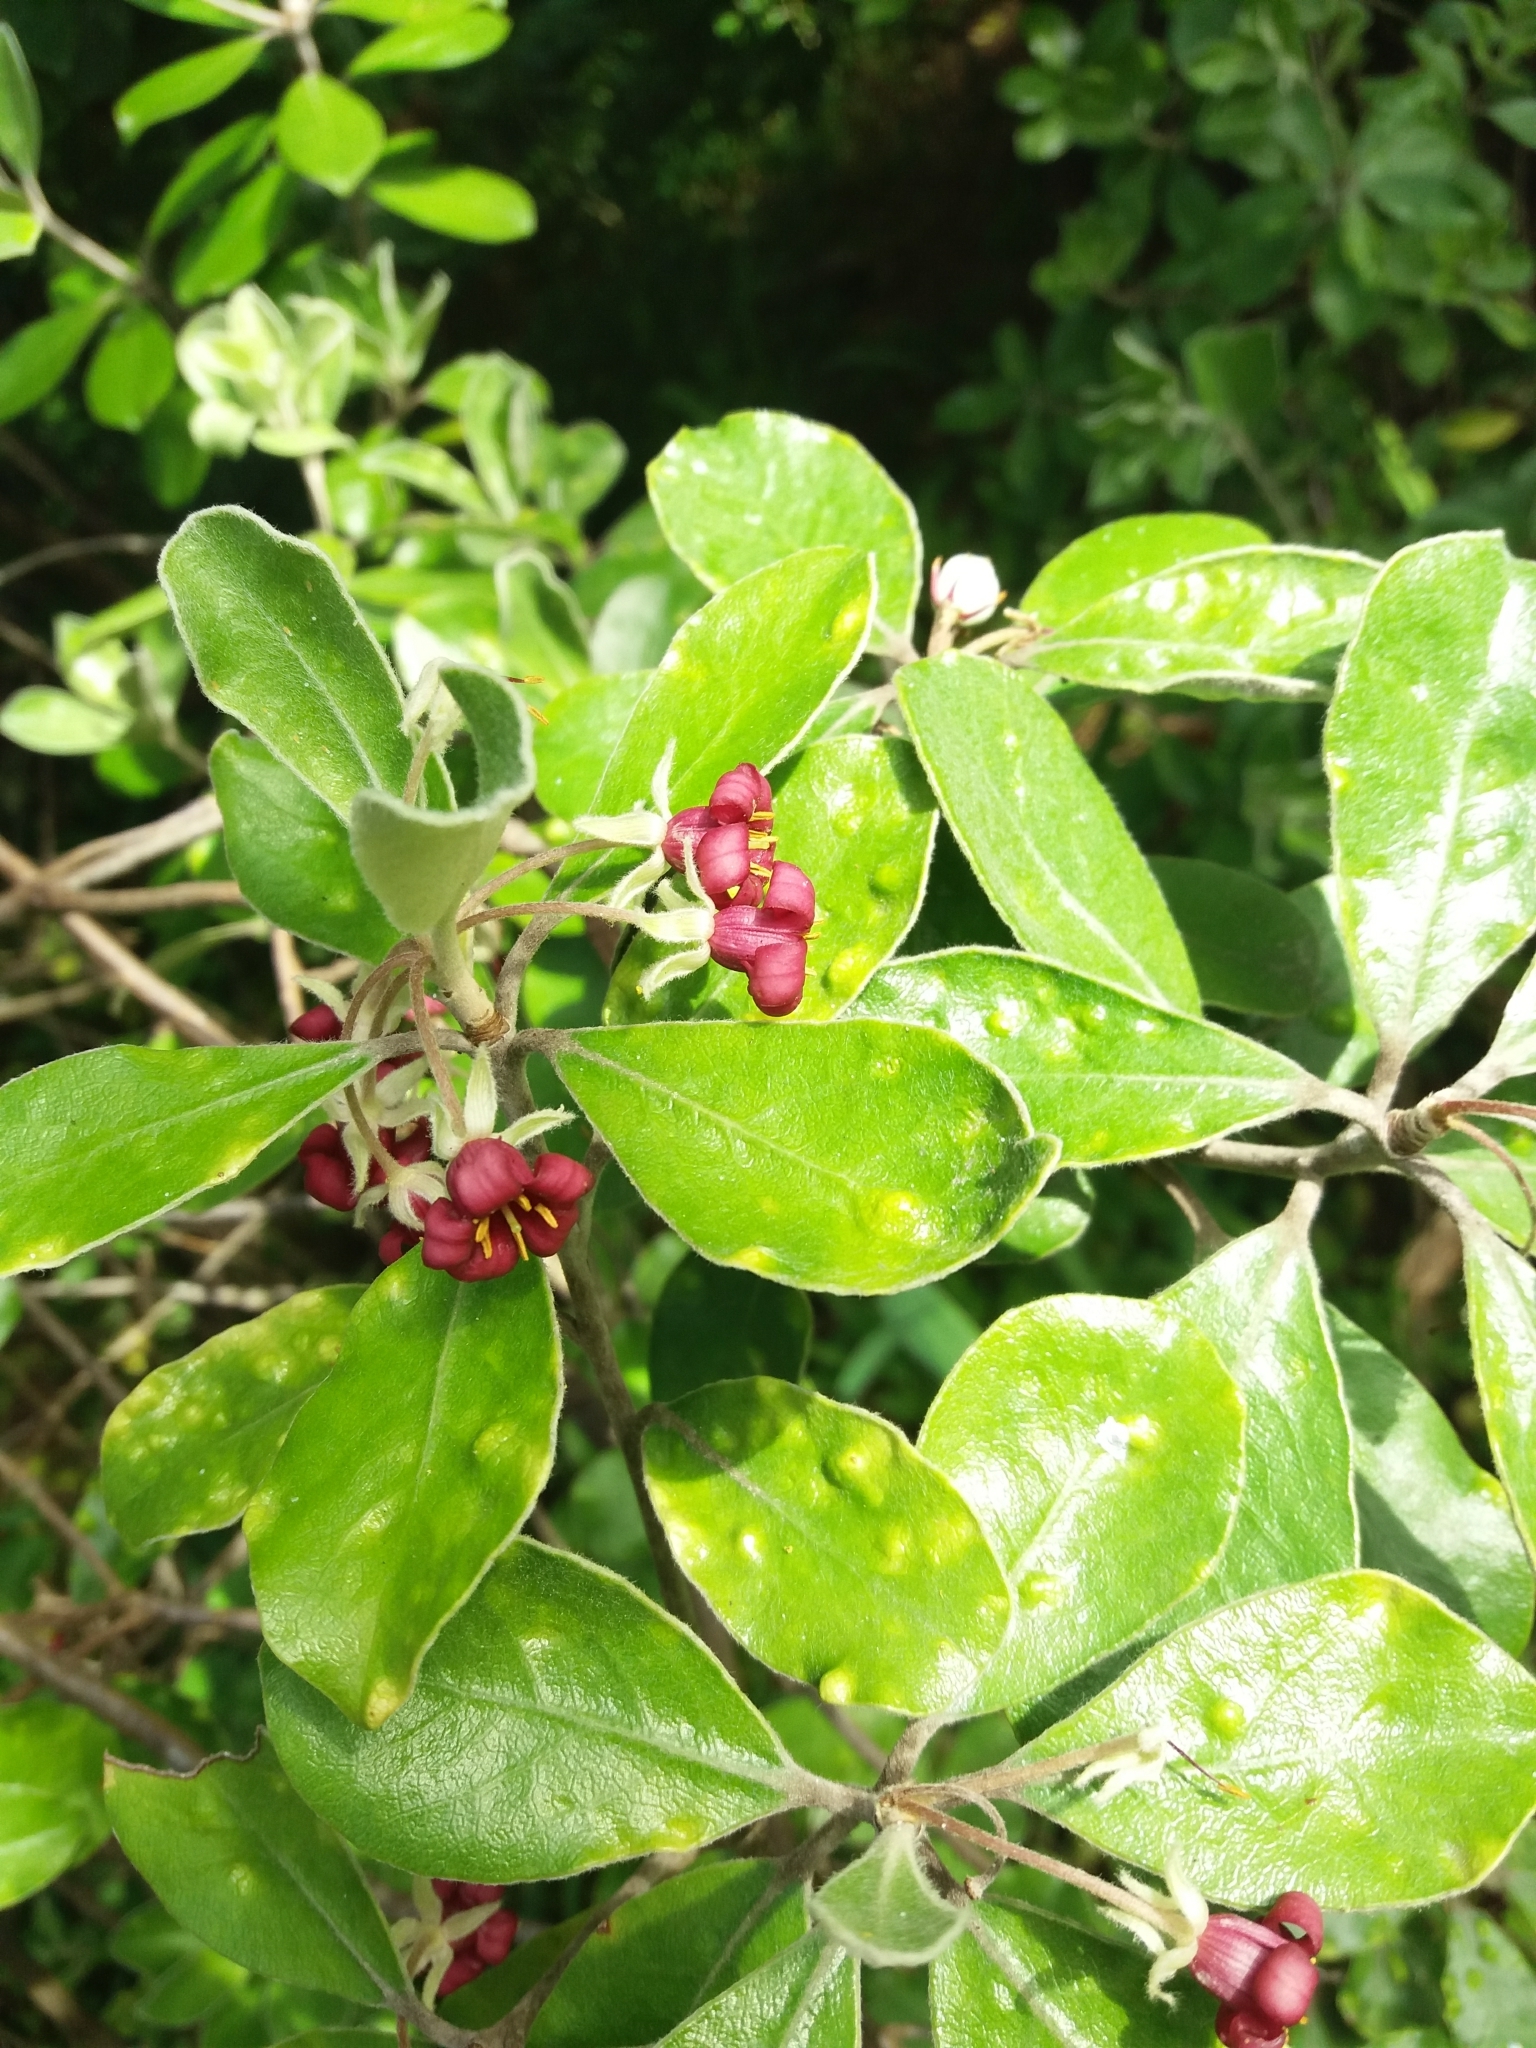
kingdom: Plantae
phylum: Tracheophyta
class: Magnoliopsida
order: Apiales
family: Pittosporaceae
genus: Pittosporum
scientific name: Pittosporum crassifolium
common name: Karo
